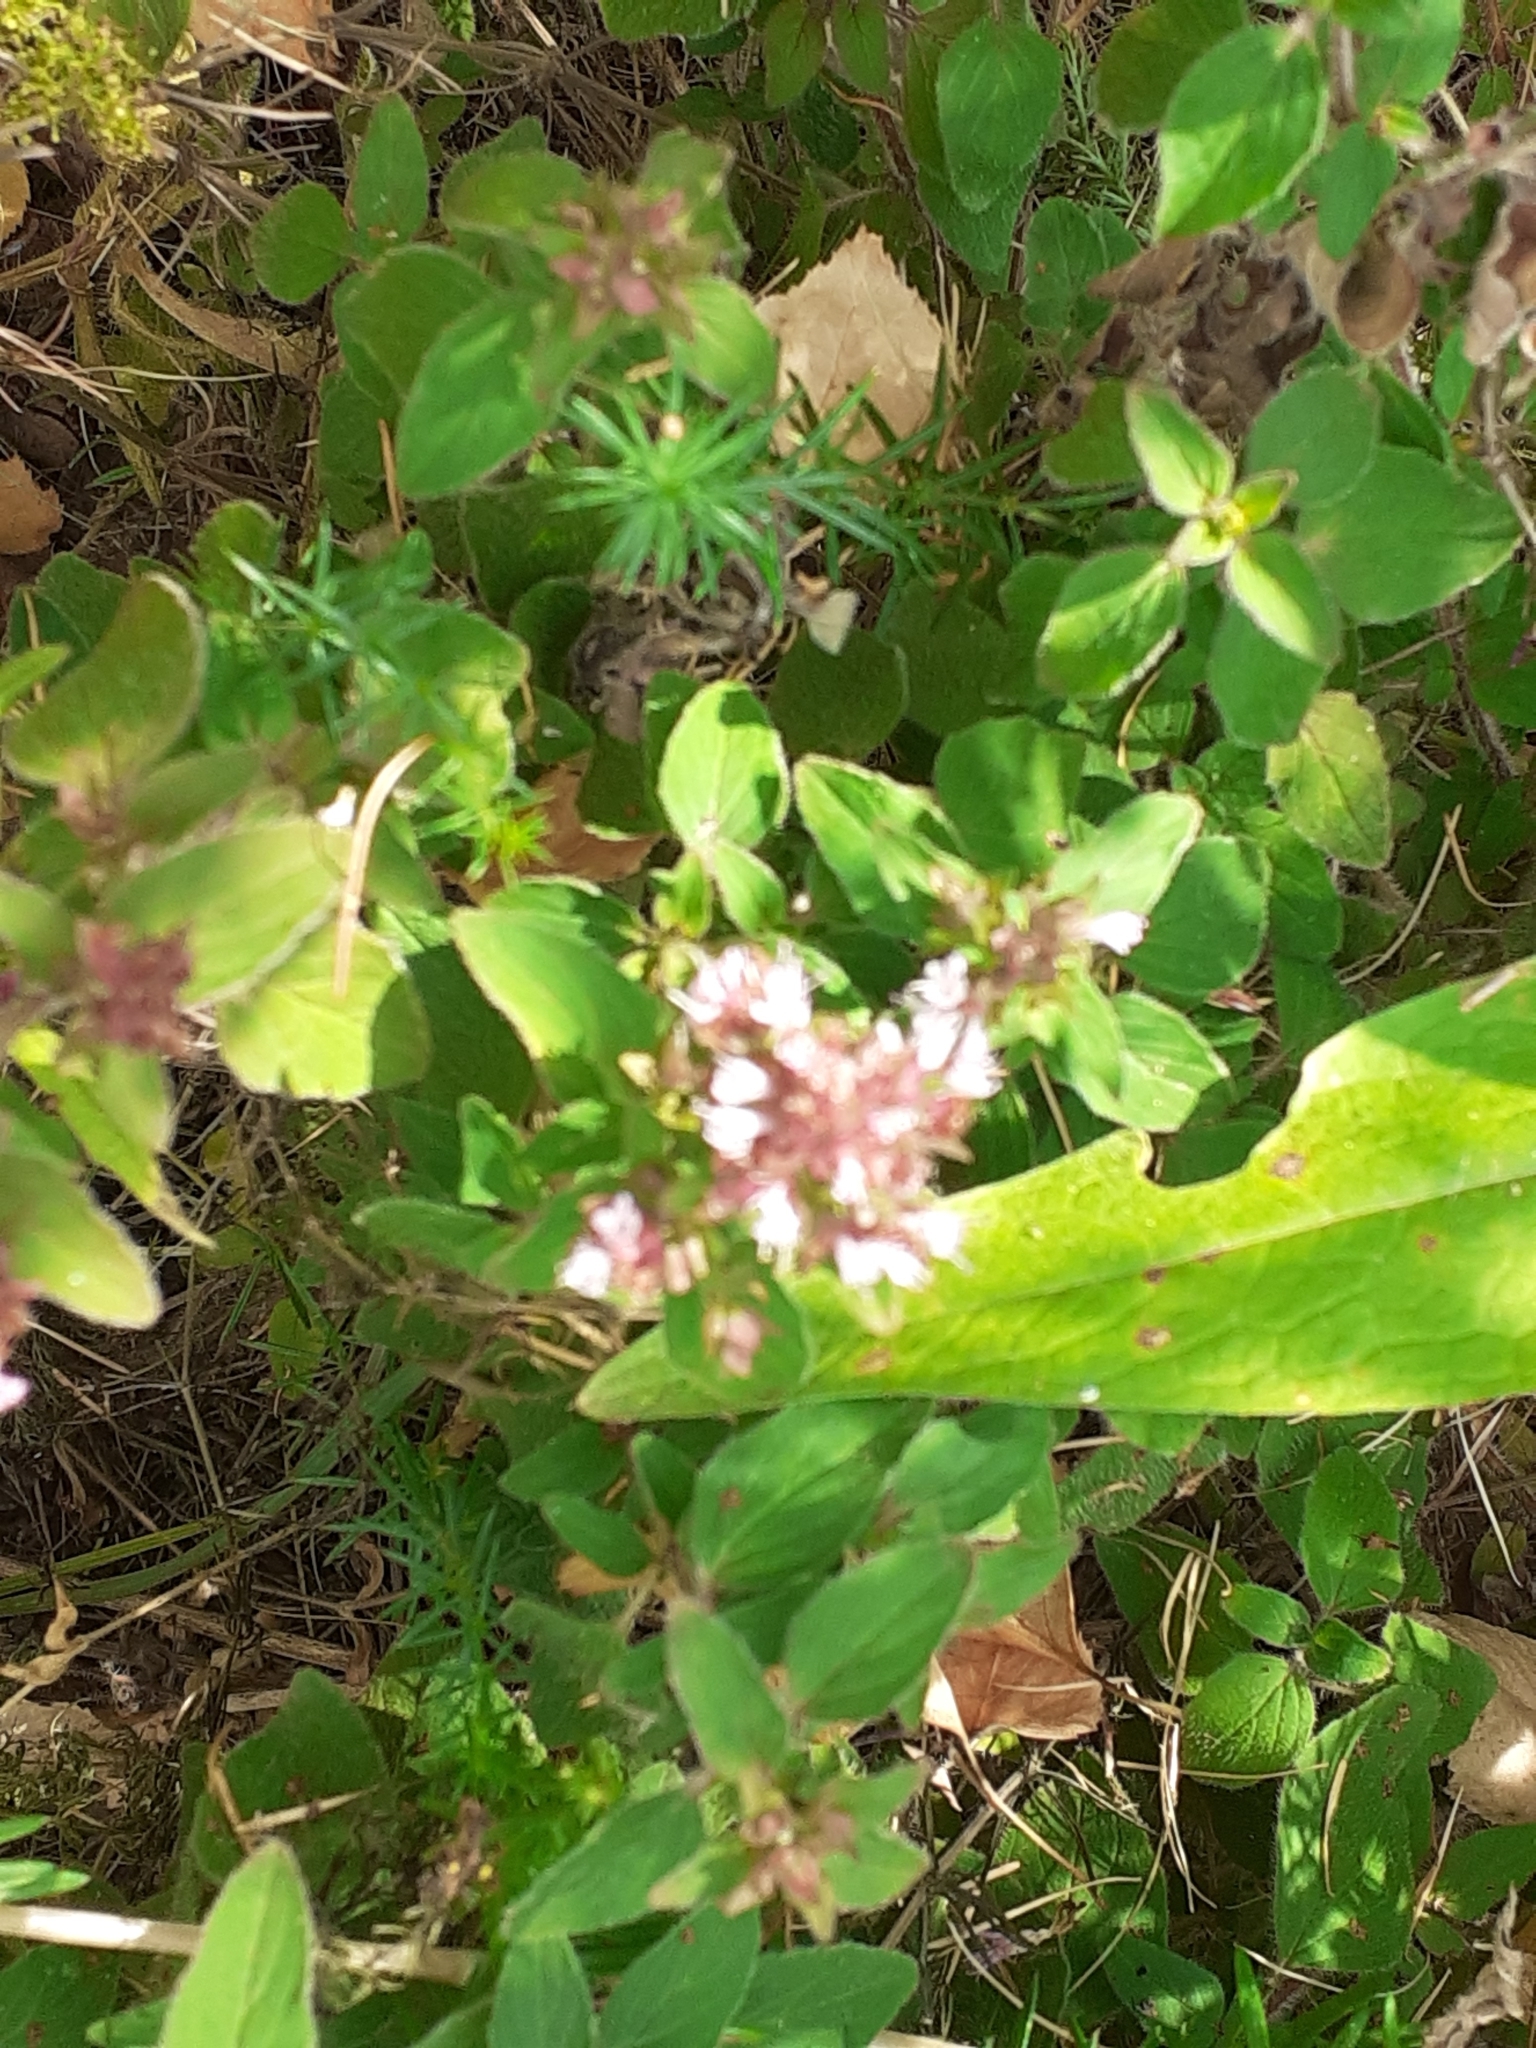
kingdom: Plantae
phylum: Tracheophyta
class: Magnoliopsida
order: Lamiales
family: Lamiaceae
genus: Origanum
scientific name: Origanum vulgare
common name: Wild marjoram
